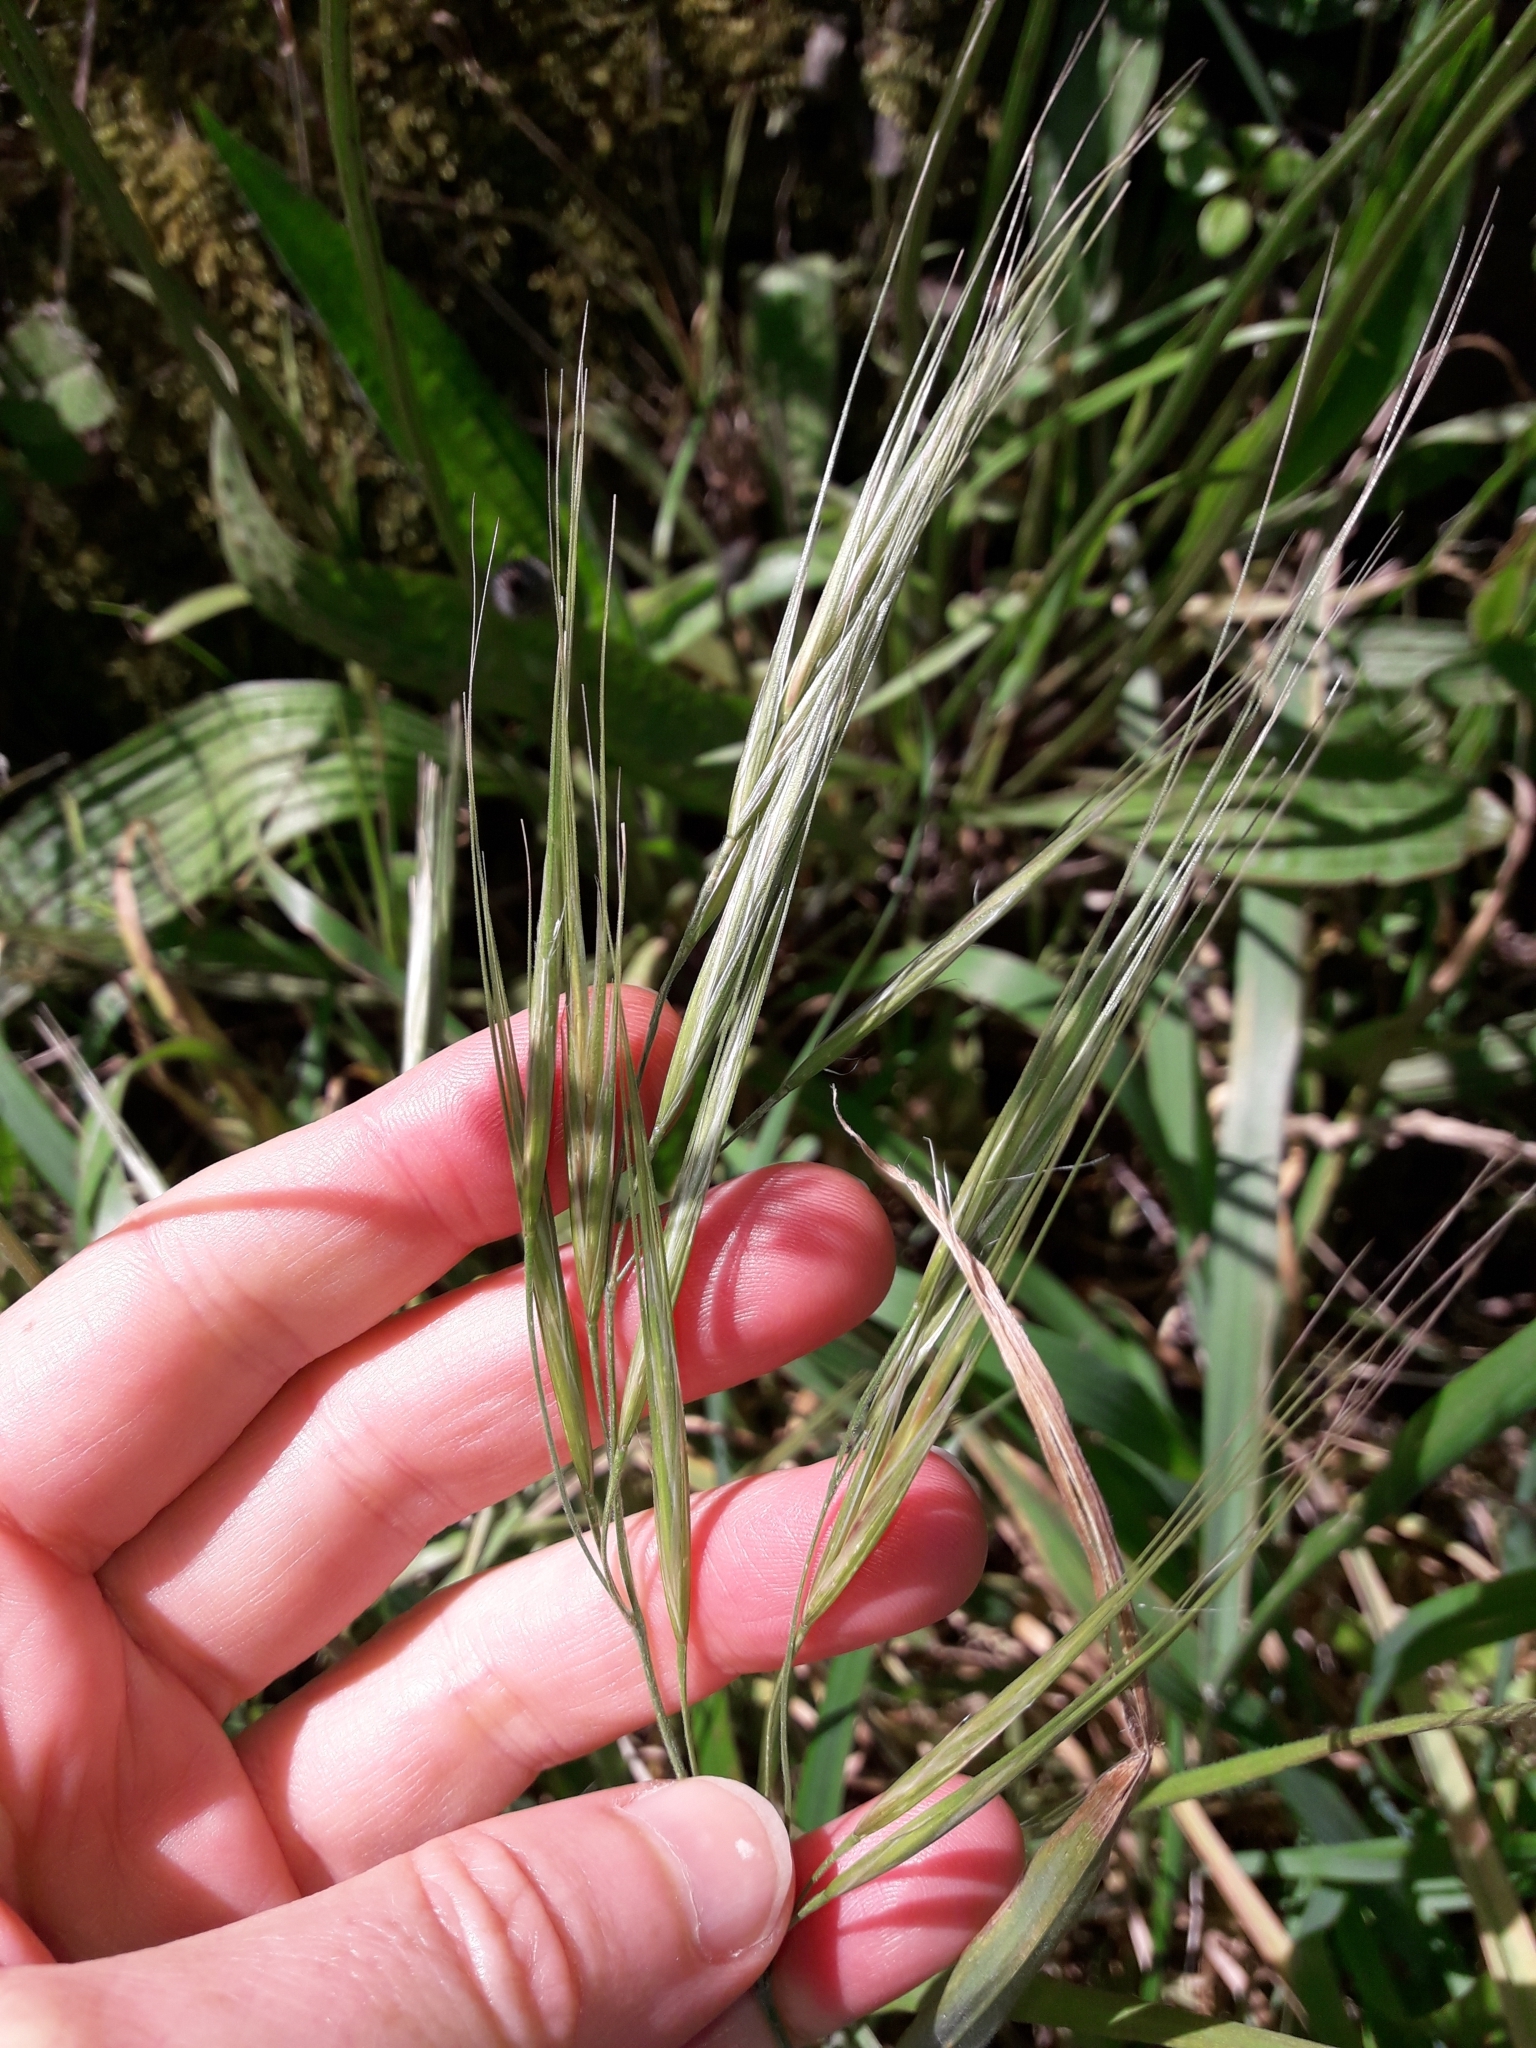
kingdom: Plantae
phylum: Tracheophyta
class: Liliopsida
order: Poales
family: Poaceae
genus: Bromus
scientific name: Bromus diandrus
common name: Ripgut brome
